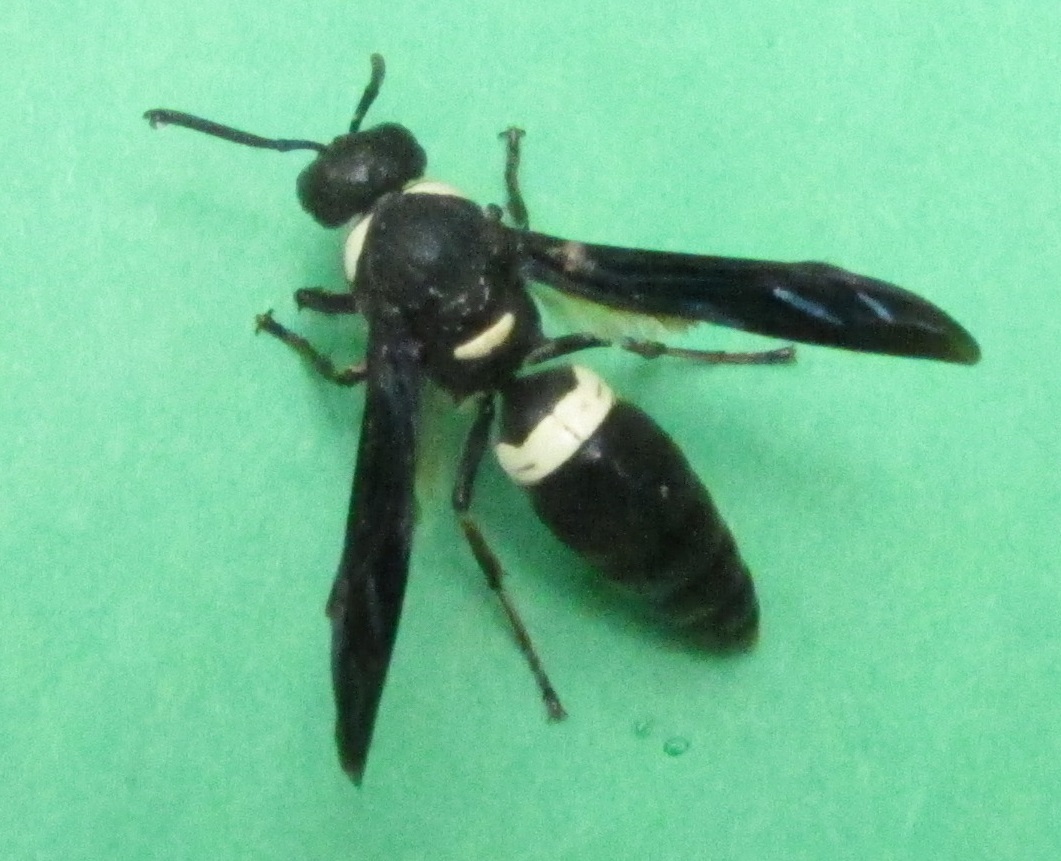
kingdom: Animalia
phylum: Arthropoda
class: Insecta
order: Hymenoptera
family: Eumenidae
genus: Monobia
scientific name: Monobia quadridens
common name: Four-toothed mason wasp
